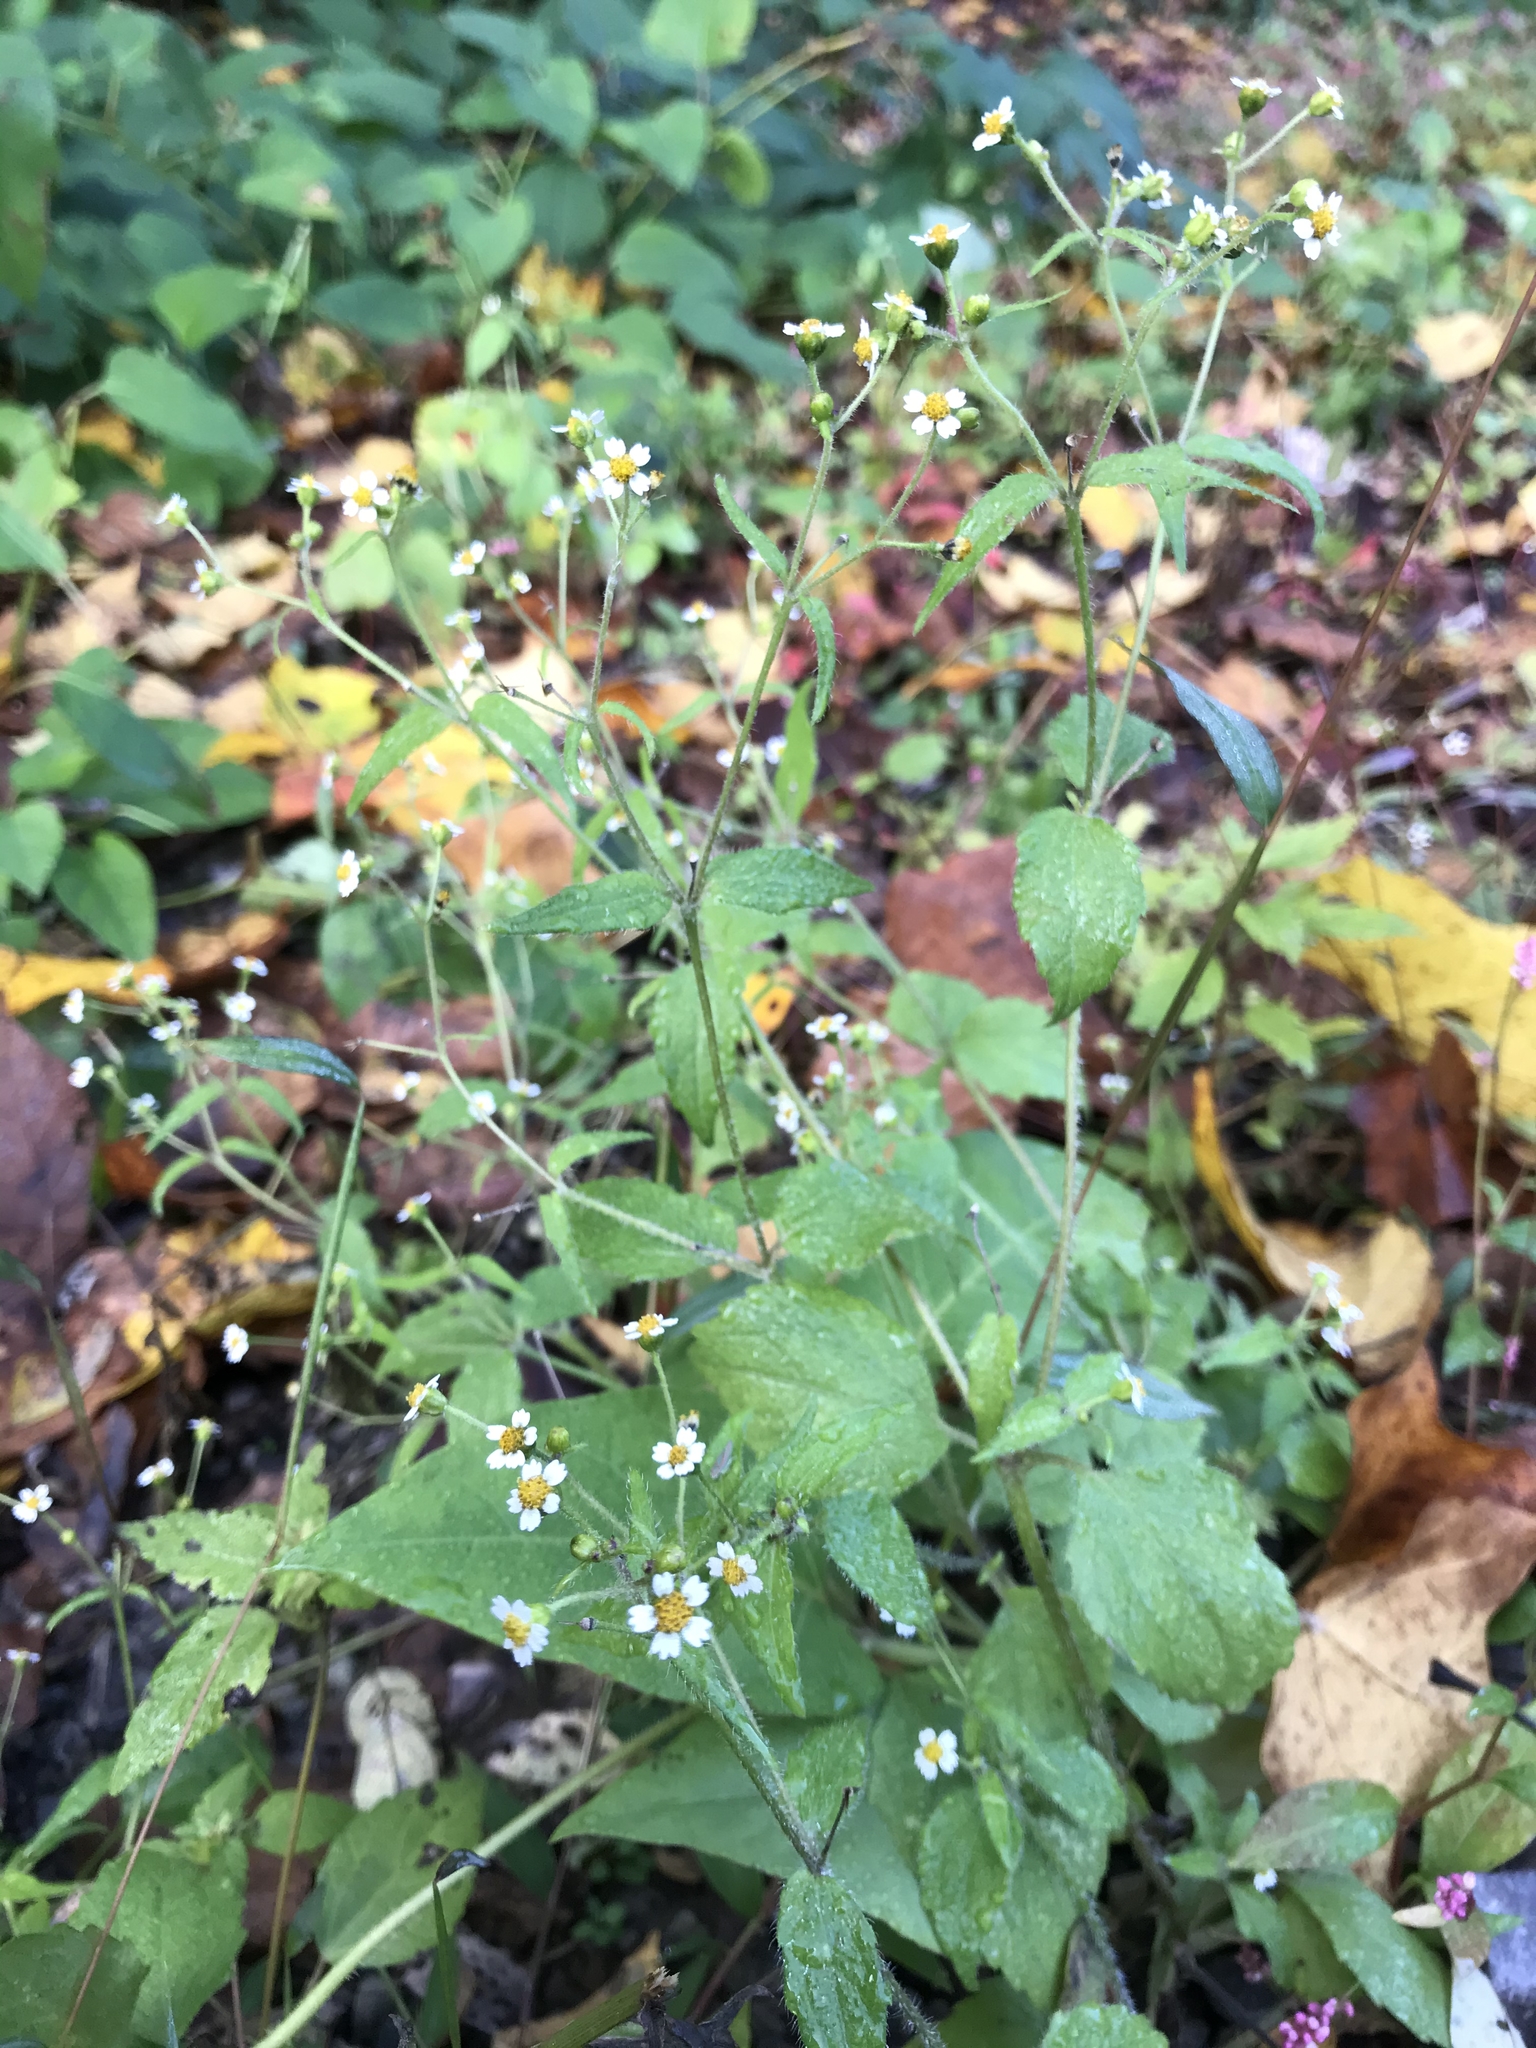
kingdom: Plantae
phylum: Tracheophyta
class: Magnoliopsida
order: Asterales
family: Asteraceae
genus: Galinsoga
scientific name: Galinsoga quadriradiata
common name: Shaggy soldier
